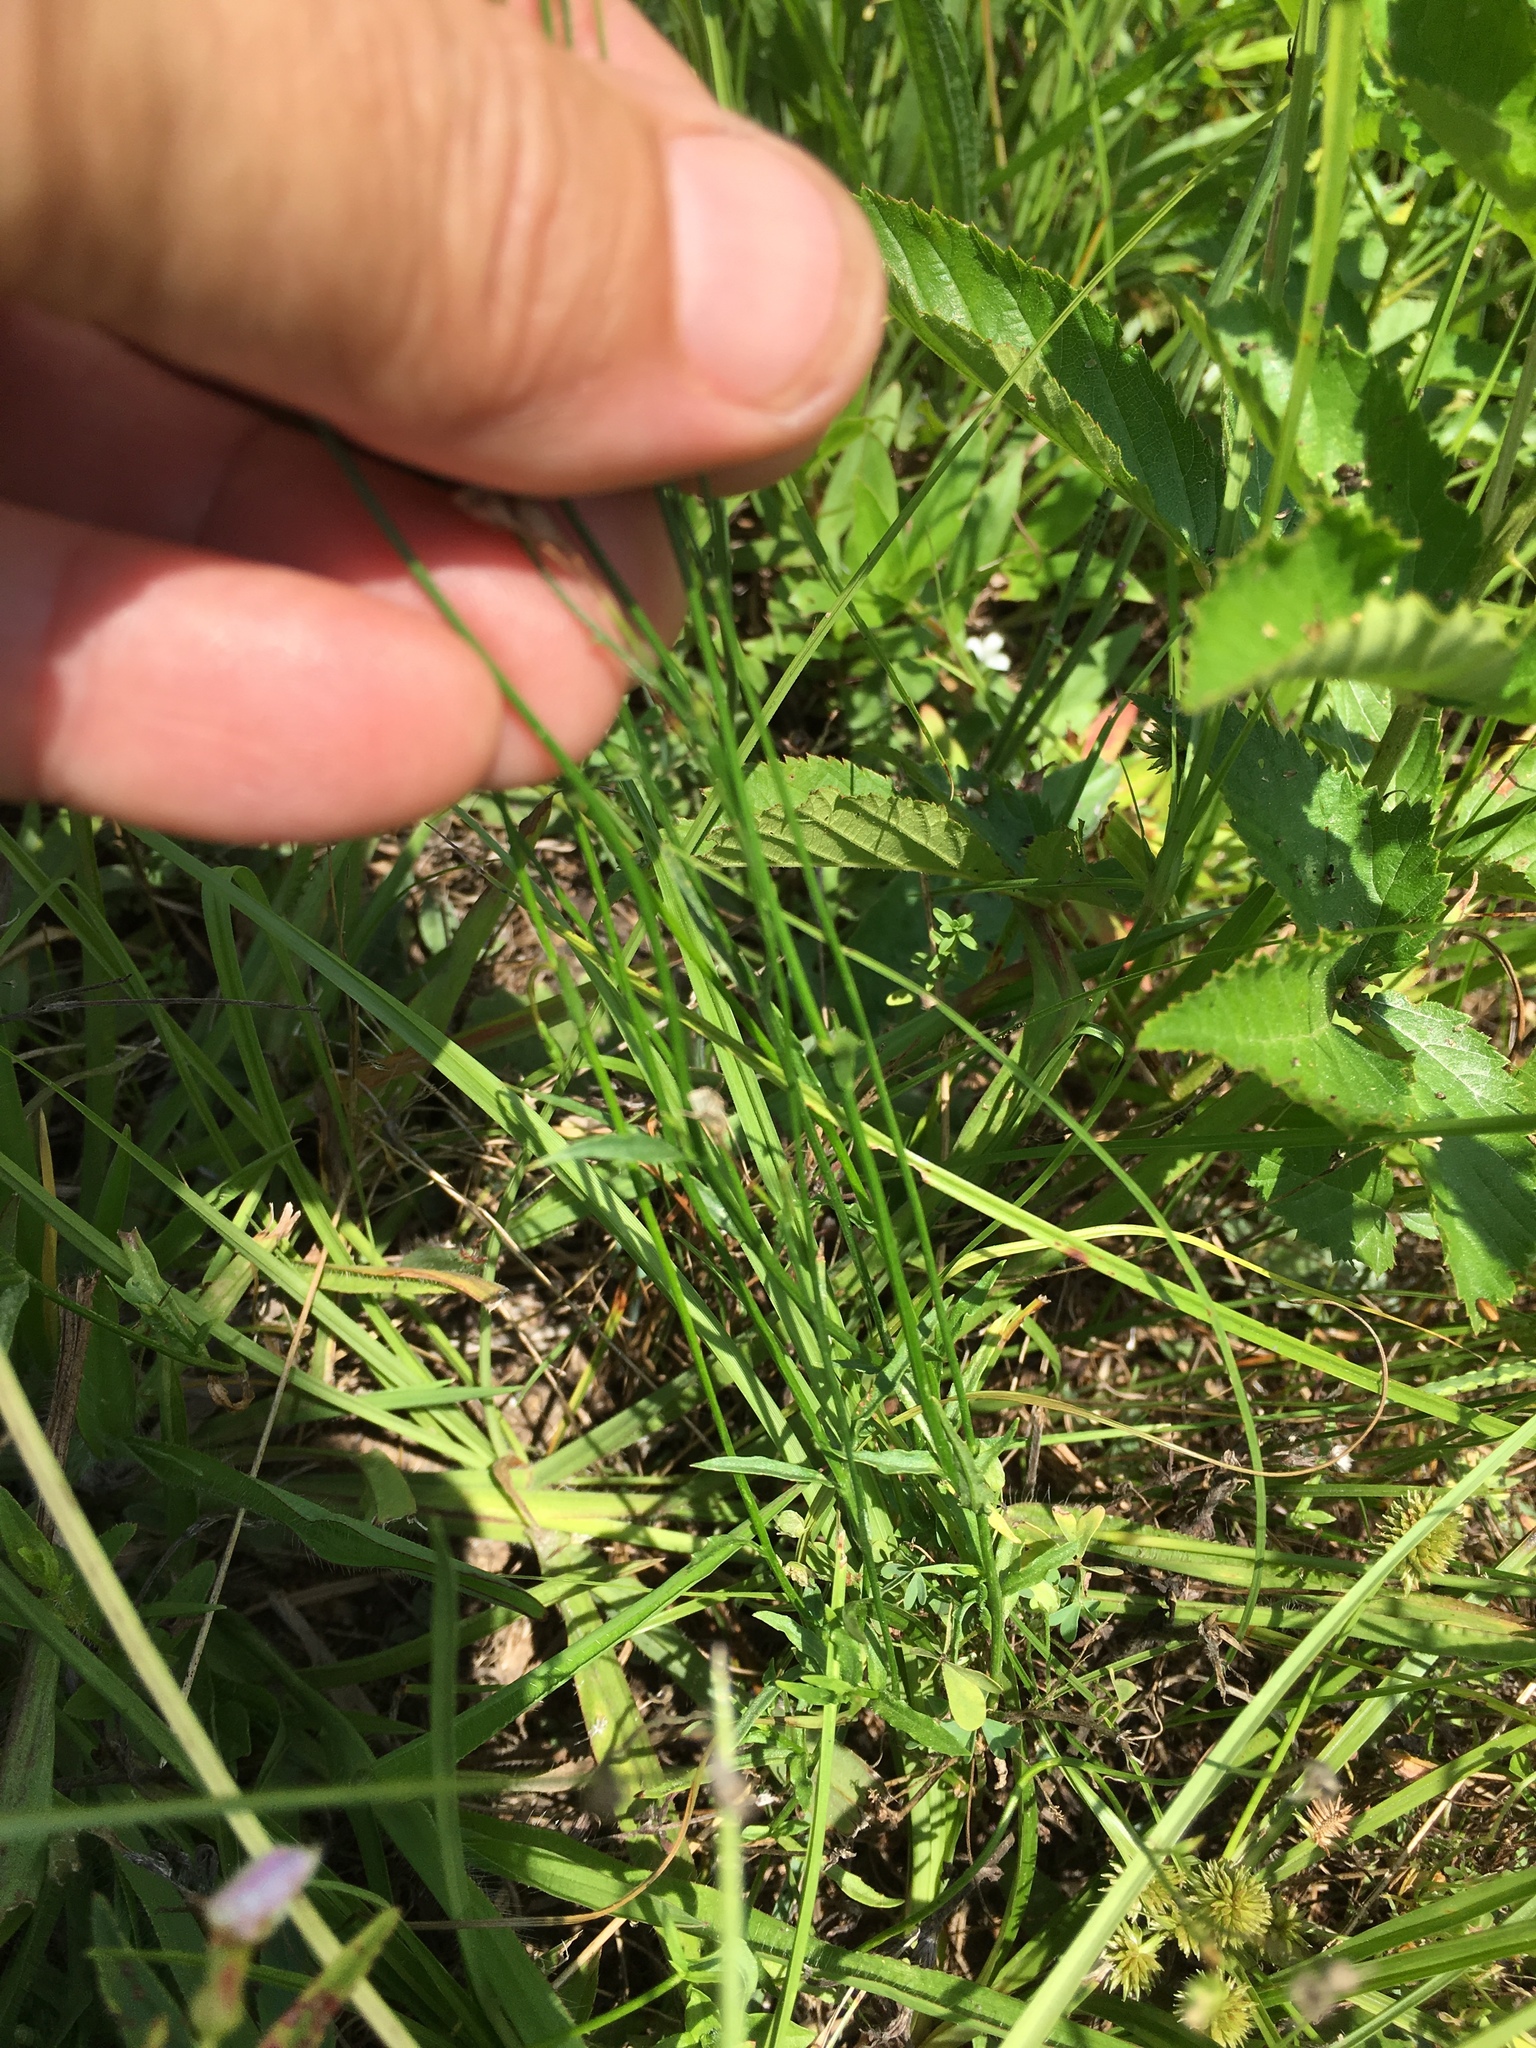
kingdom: Plantae
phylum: Tracheophyta
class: Magnoliopsida
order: Asterales
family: Campanulaceae
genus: Wahlenbergia
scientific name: Wahlenbergia marginata
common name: Southern rockbell
